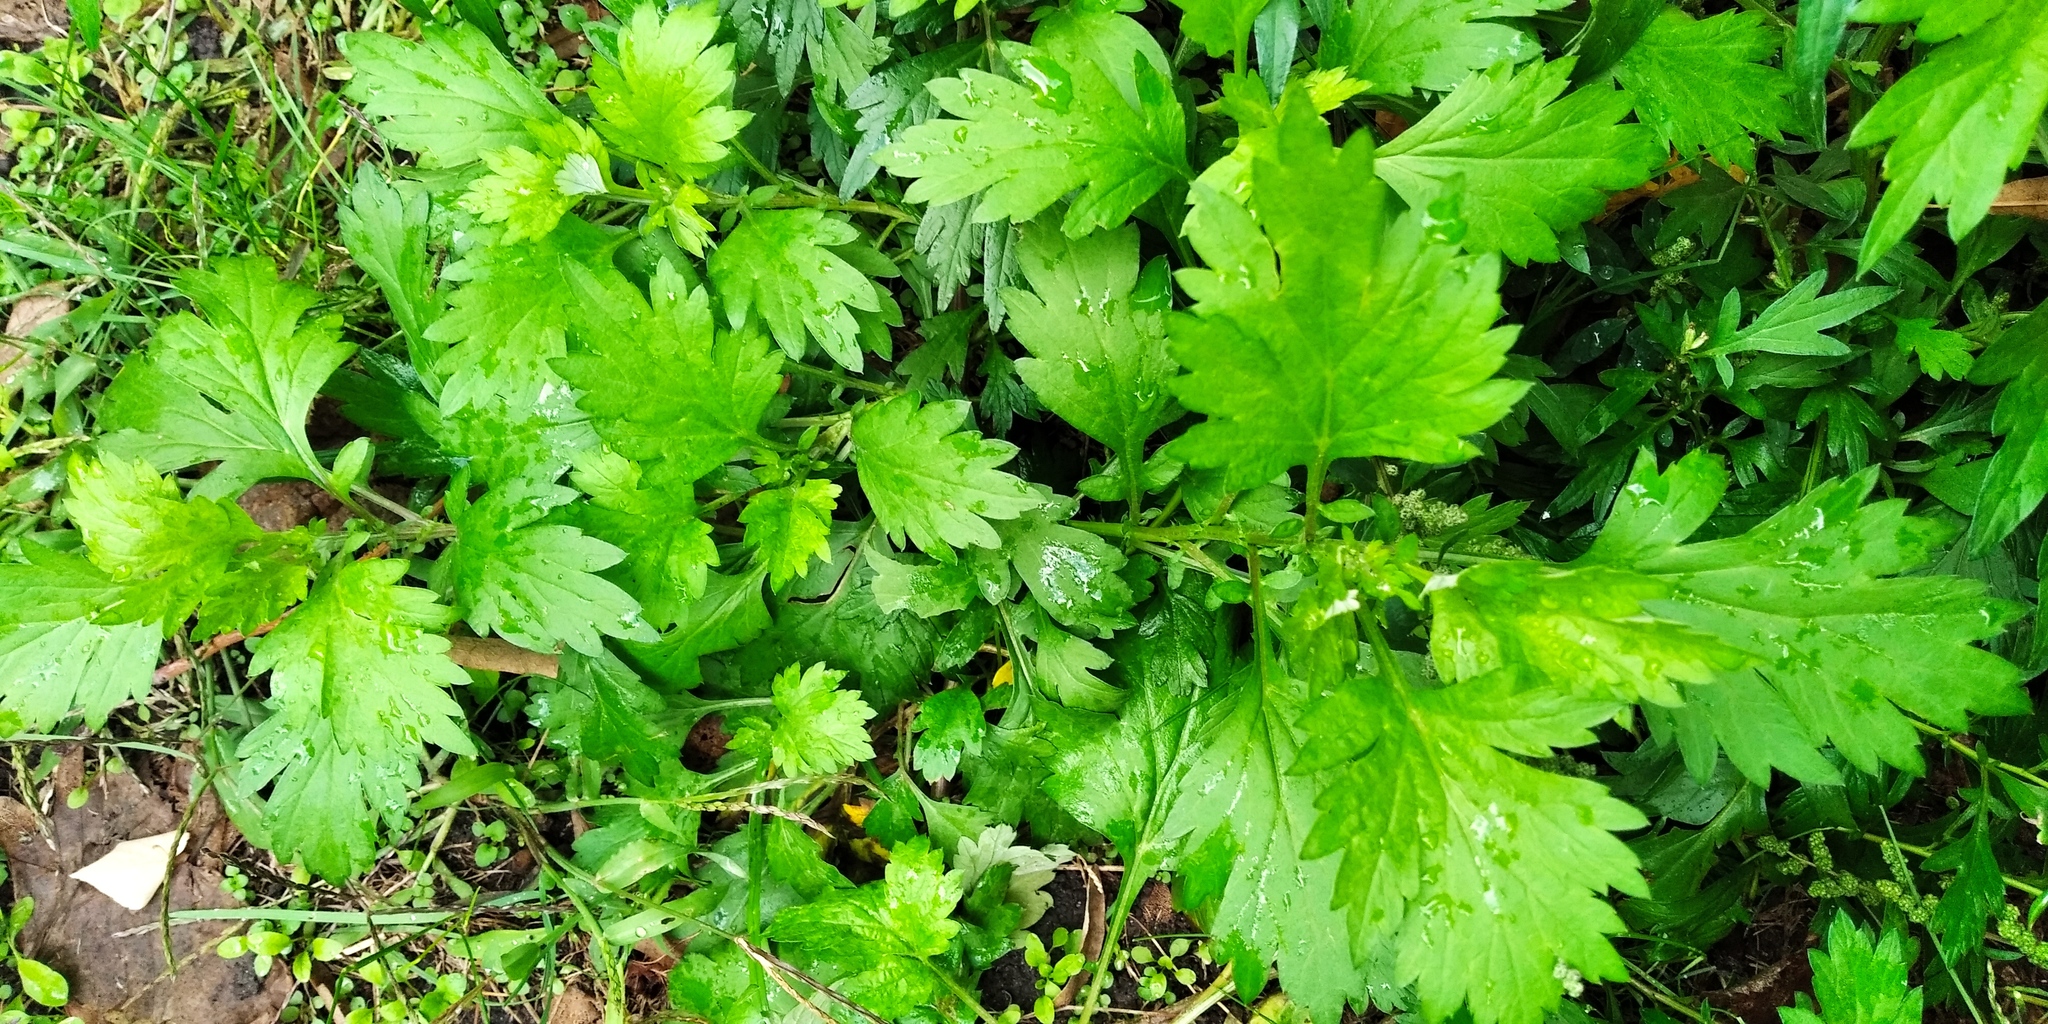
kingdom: Plantae
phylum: Tracheophyta
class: Magnoliopsida
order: Asterales
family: Asteraceae
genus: Artemisia
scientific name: Artemisia vulgaris
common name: Mugwort
